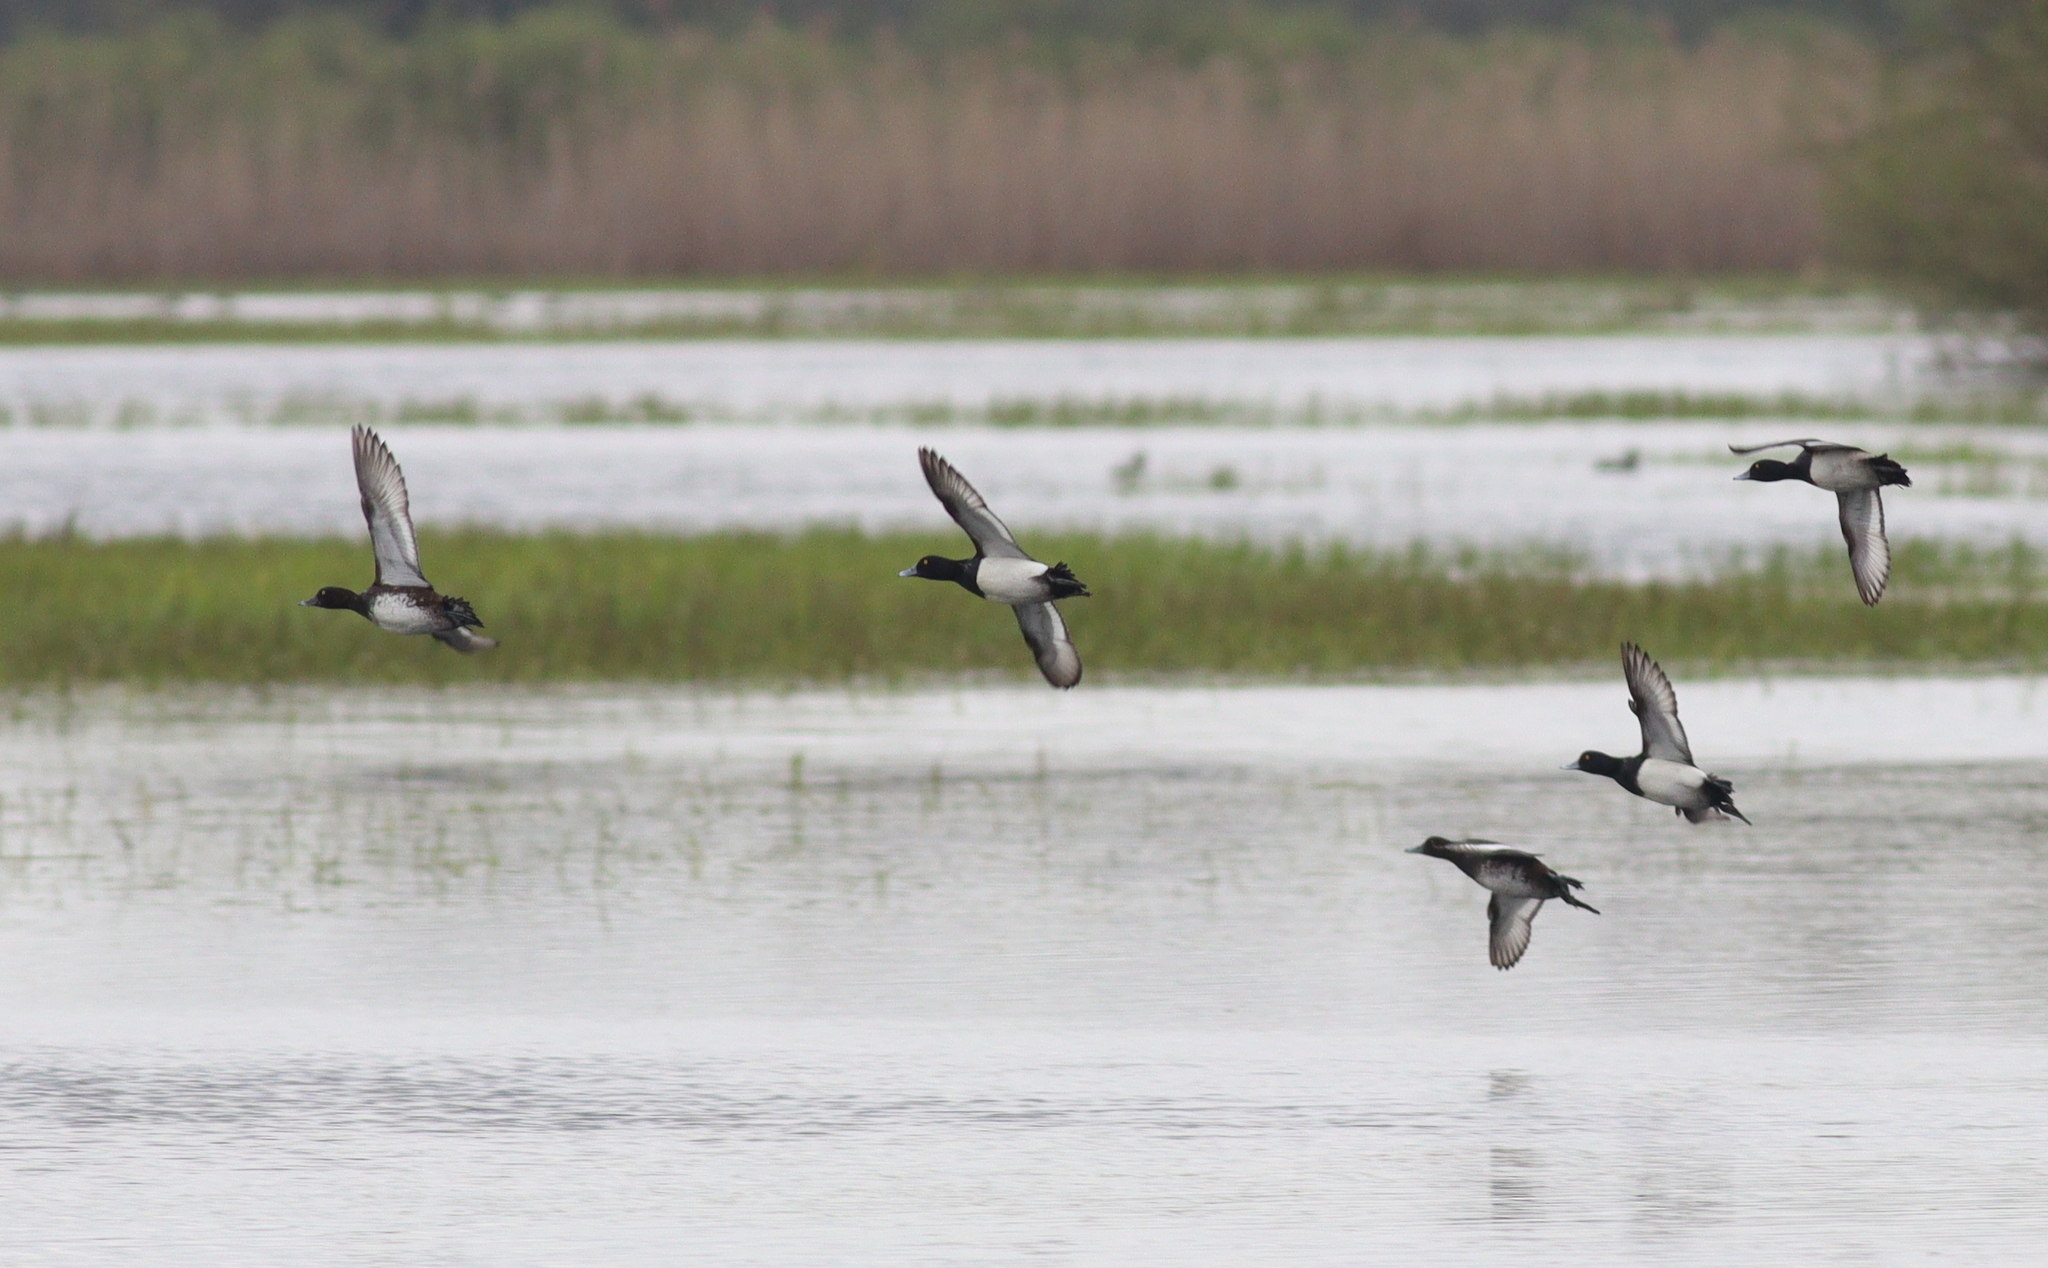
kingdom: Animalia
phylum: Chordata
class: Aves
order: Anseriformes
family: Anatidae
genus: Aythya
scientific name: Aythya fuligula
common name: Tufted duck
